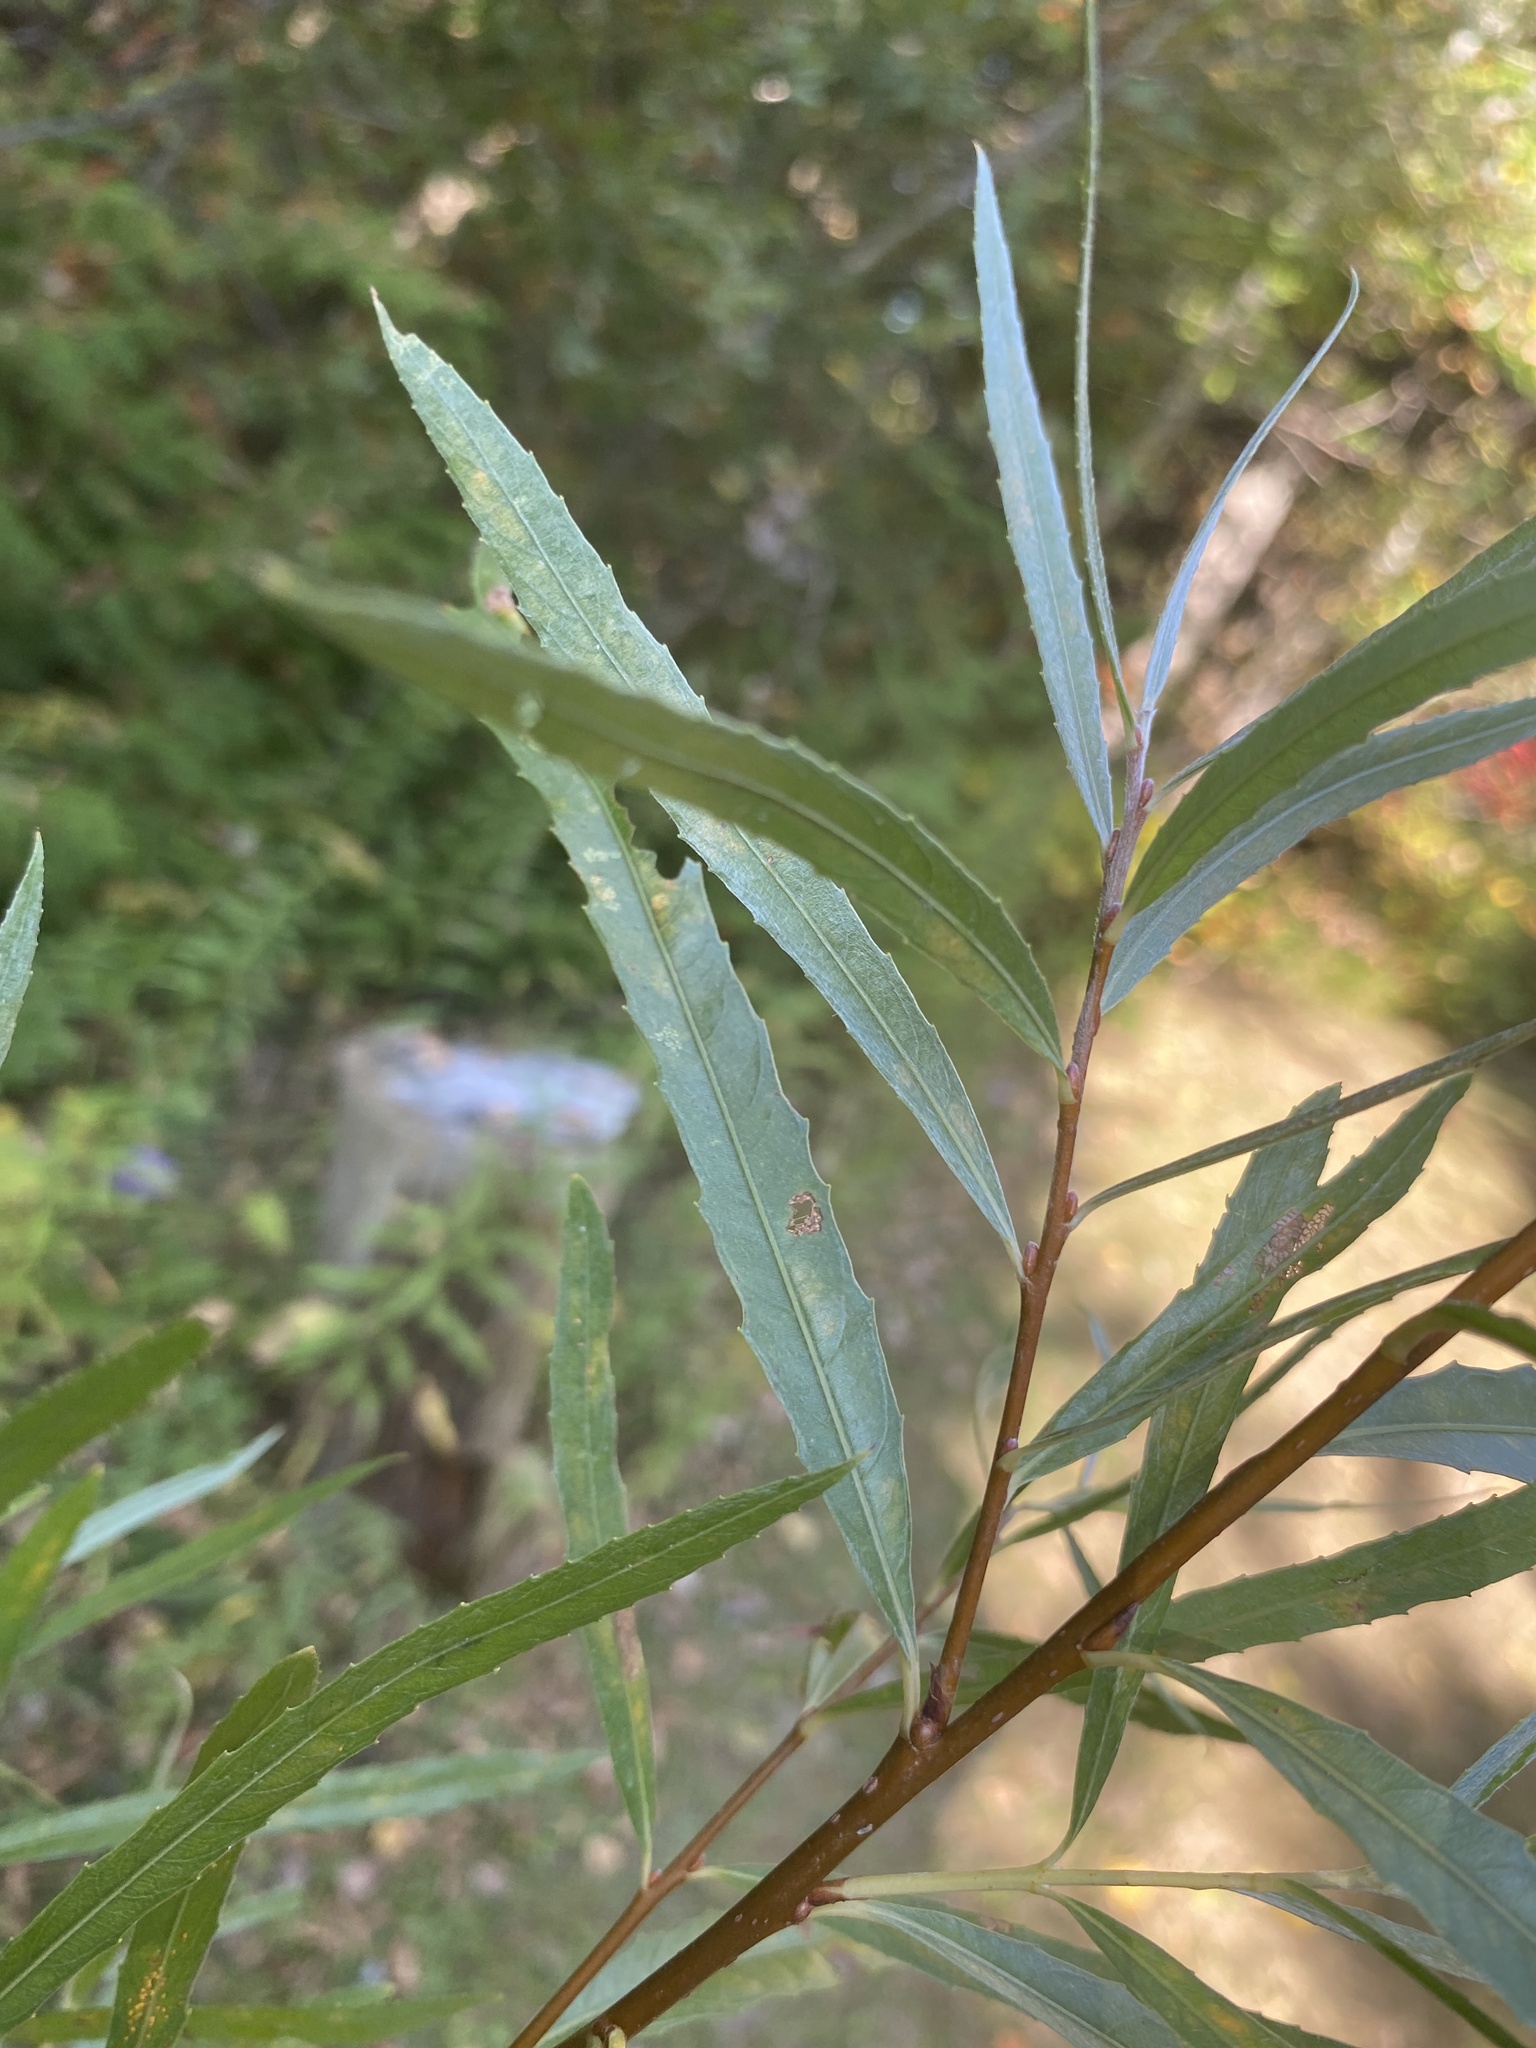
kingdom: Plantae
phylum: Tracheophyta
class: Magnoliopsida
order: Malpighiales
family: Salicaceae
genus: Salix
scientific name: Salix interior
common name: Sandbar willow
